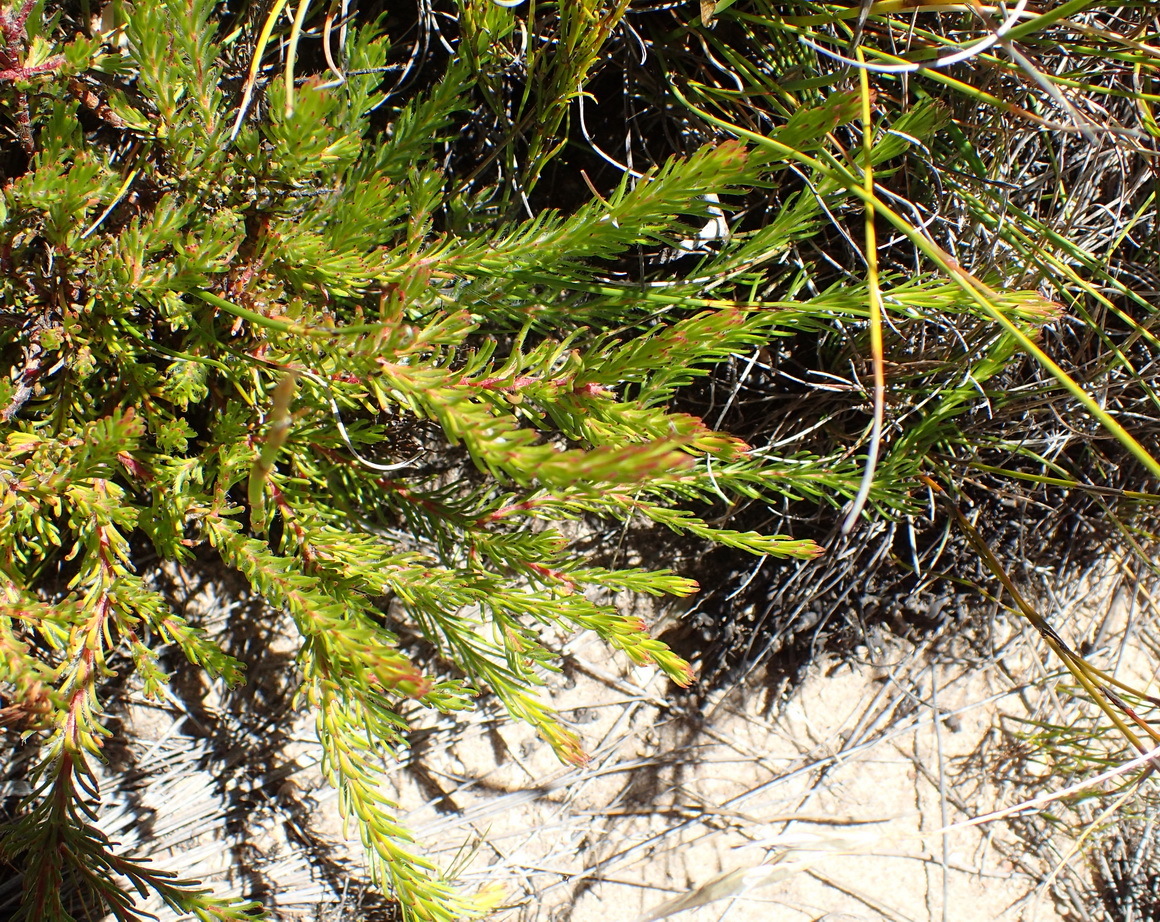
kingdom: Plantae
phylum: Tracheophyta
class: Magnoliopsida
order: Proteales
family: Proteaceae
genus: Spatalla
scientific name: Spatalla confusa
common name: Long-tube spoon
